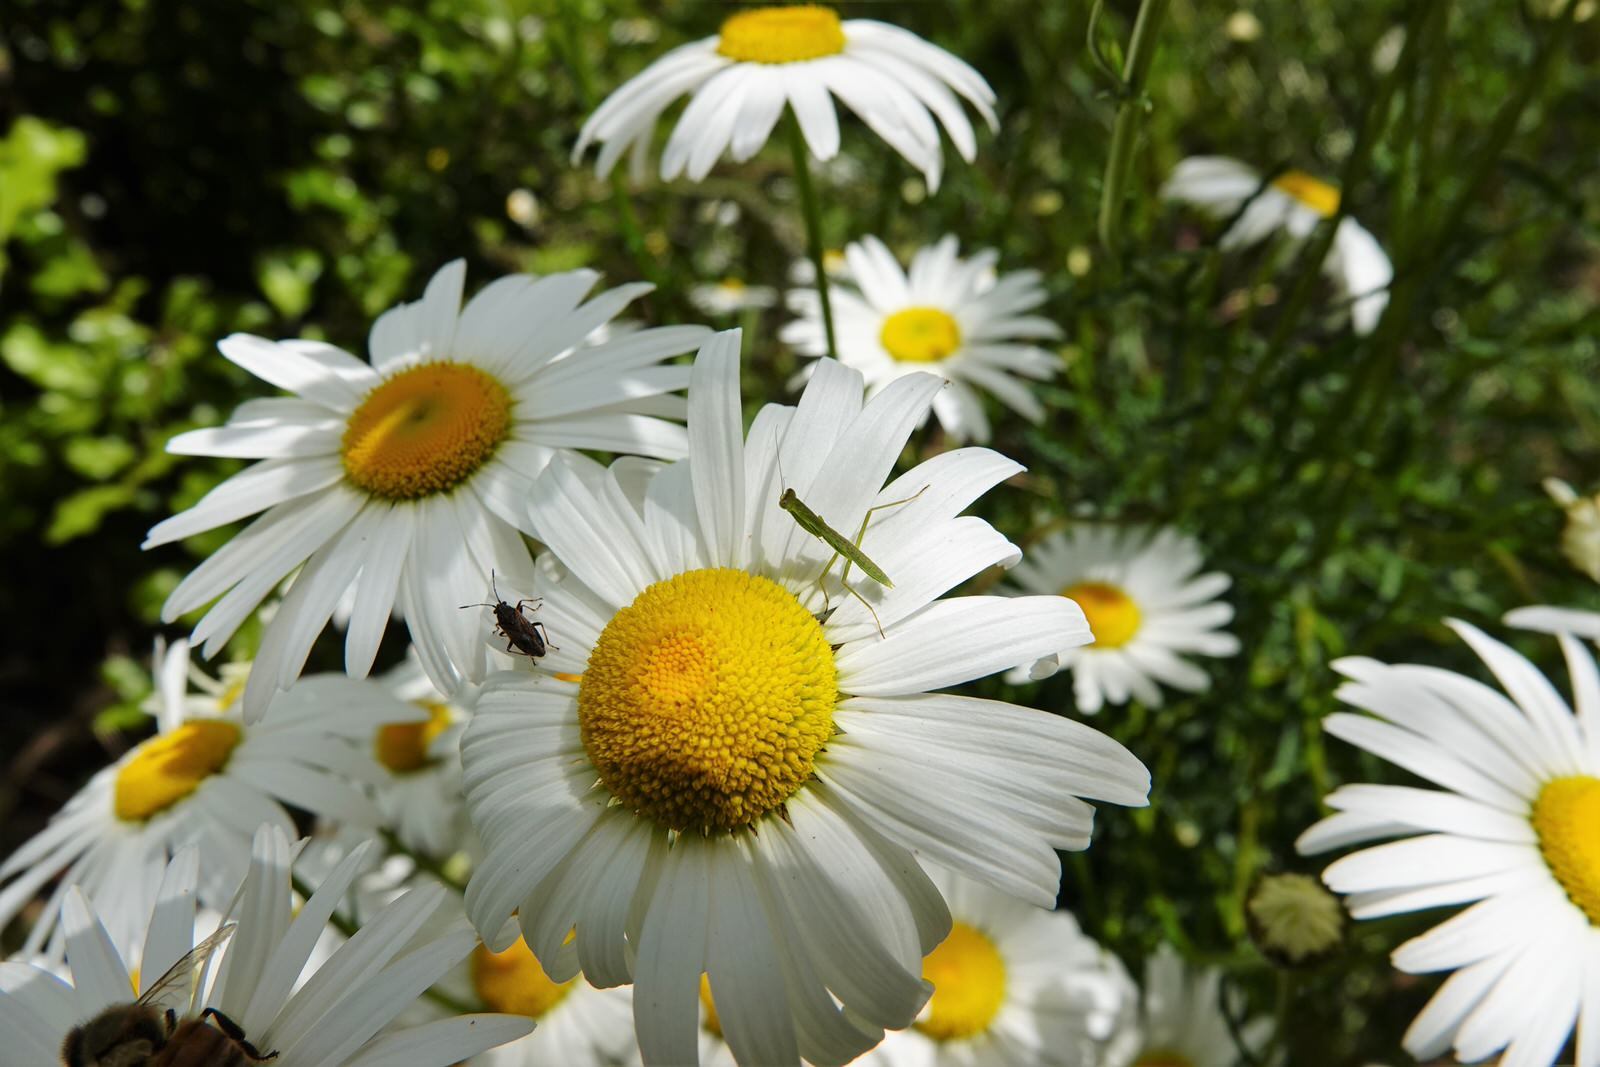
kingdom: Animalia
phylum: Arthropoda
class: Insecta
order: Mantodea
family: Mantidae
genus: Orthodera
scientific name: Orthodera novaezealandiae
